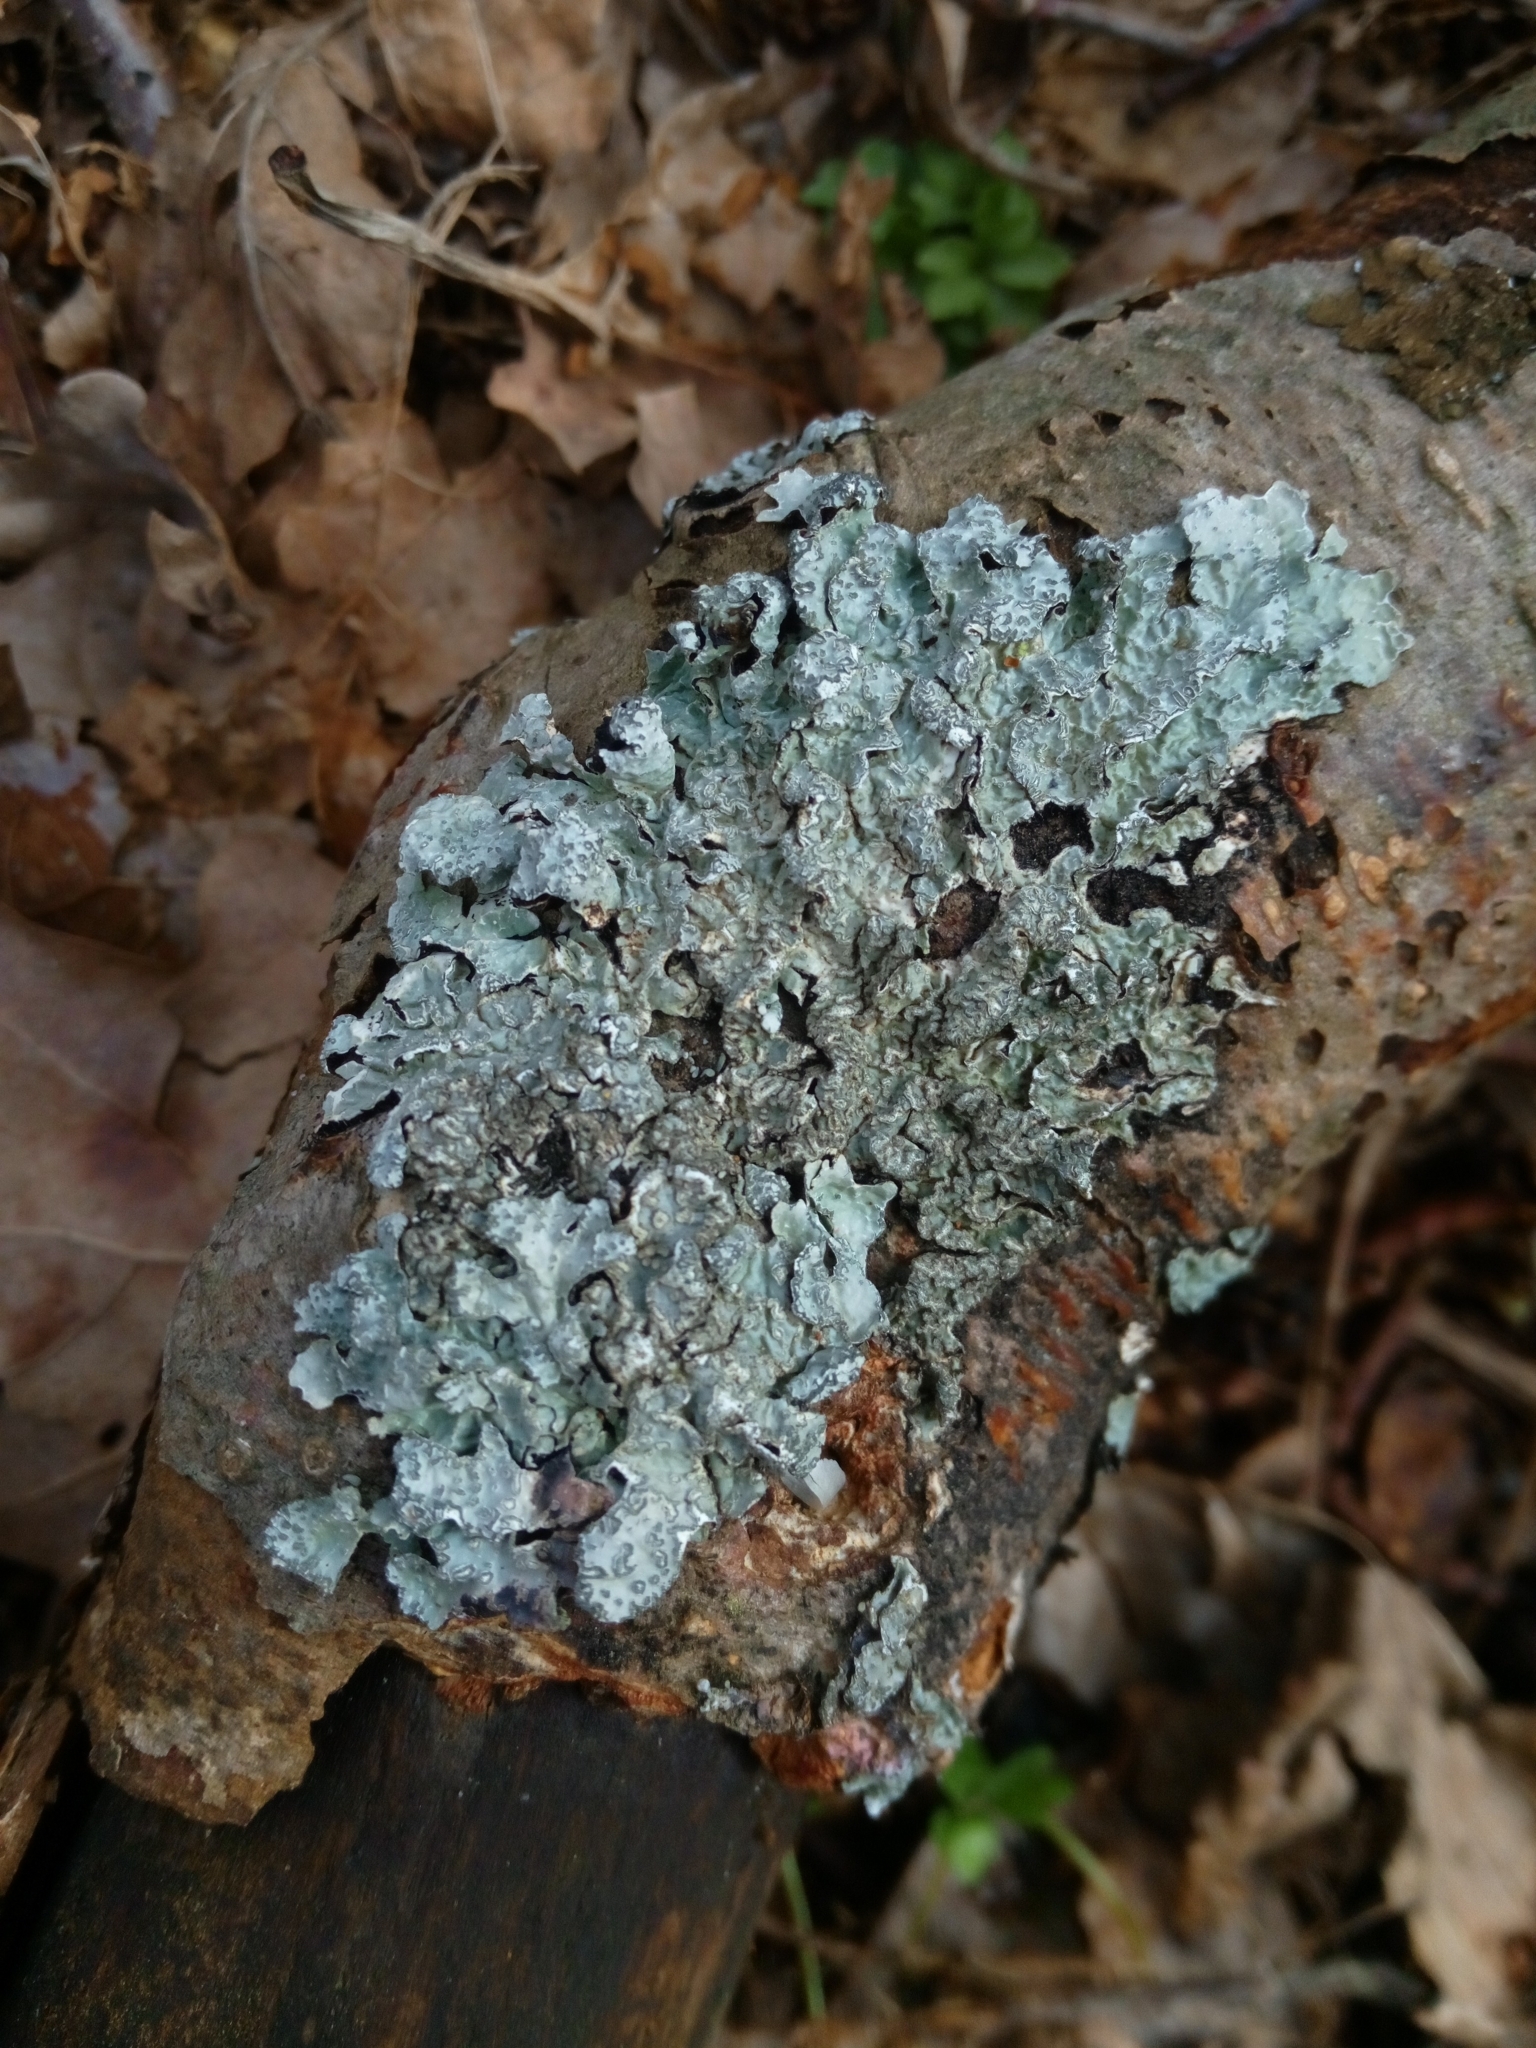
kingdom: Fungi
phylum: Ascomycota
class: Lecanoromycetes
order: Lecanorales
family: Parmeliaceae
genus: Parmelia
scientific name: Parmelia sulcata
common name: Netted shield lichen
